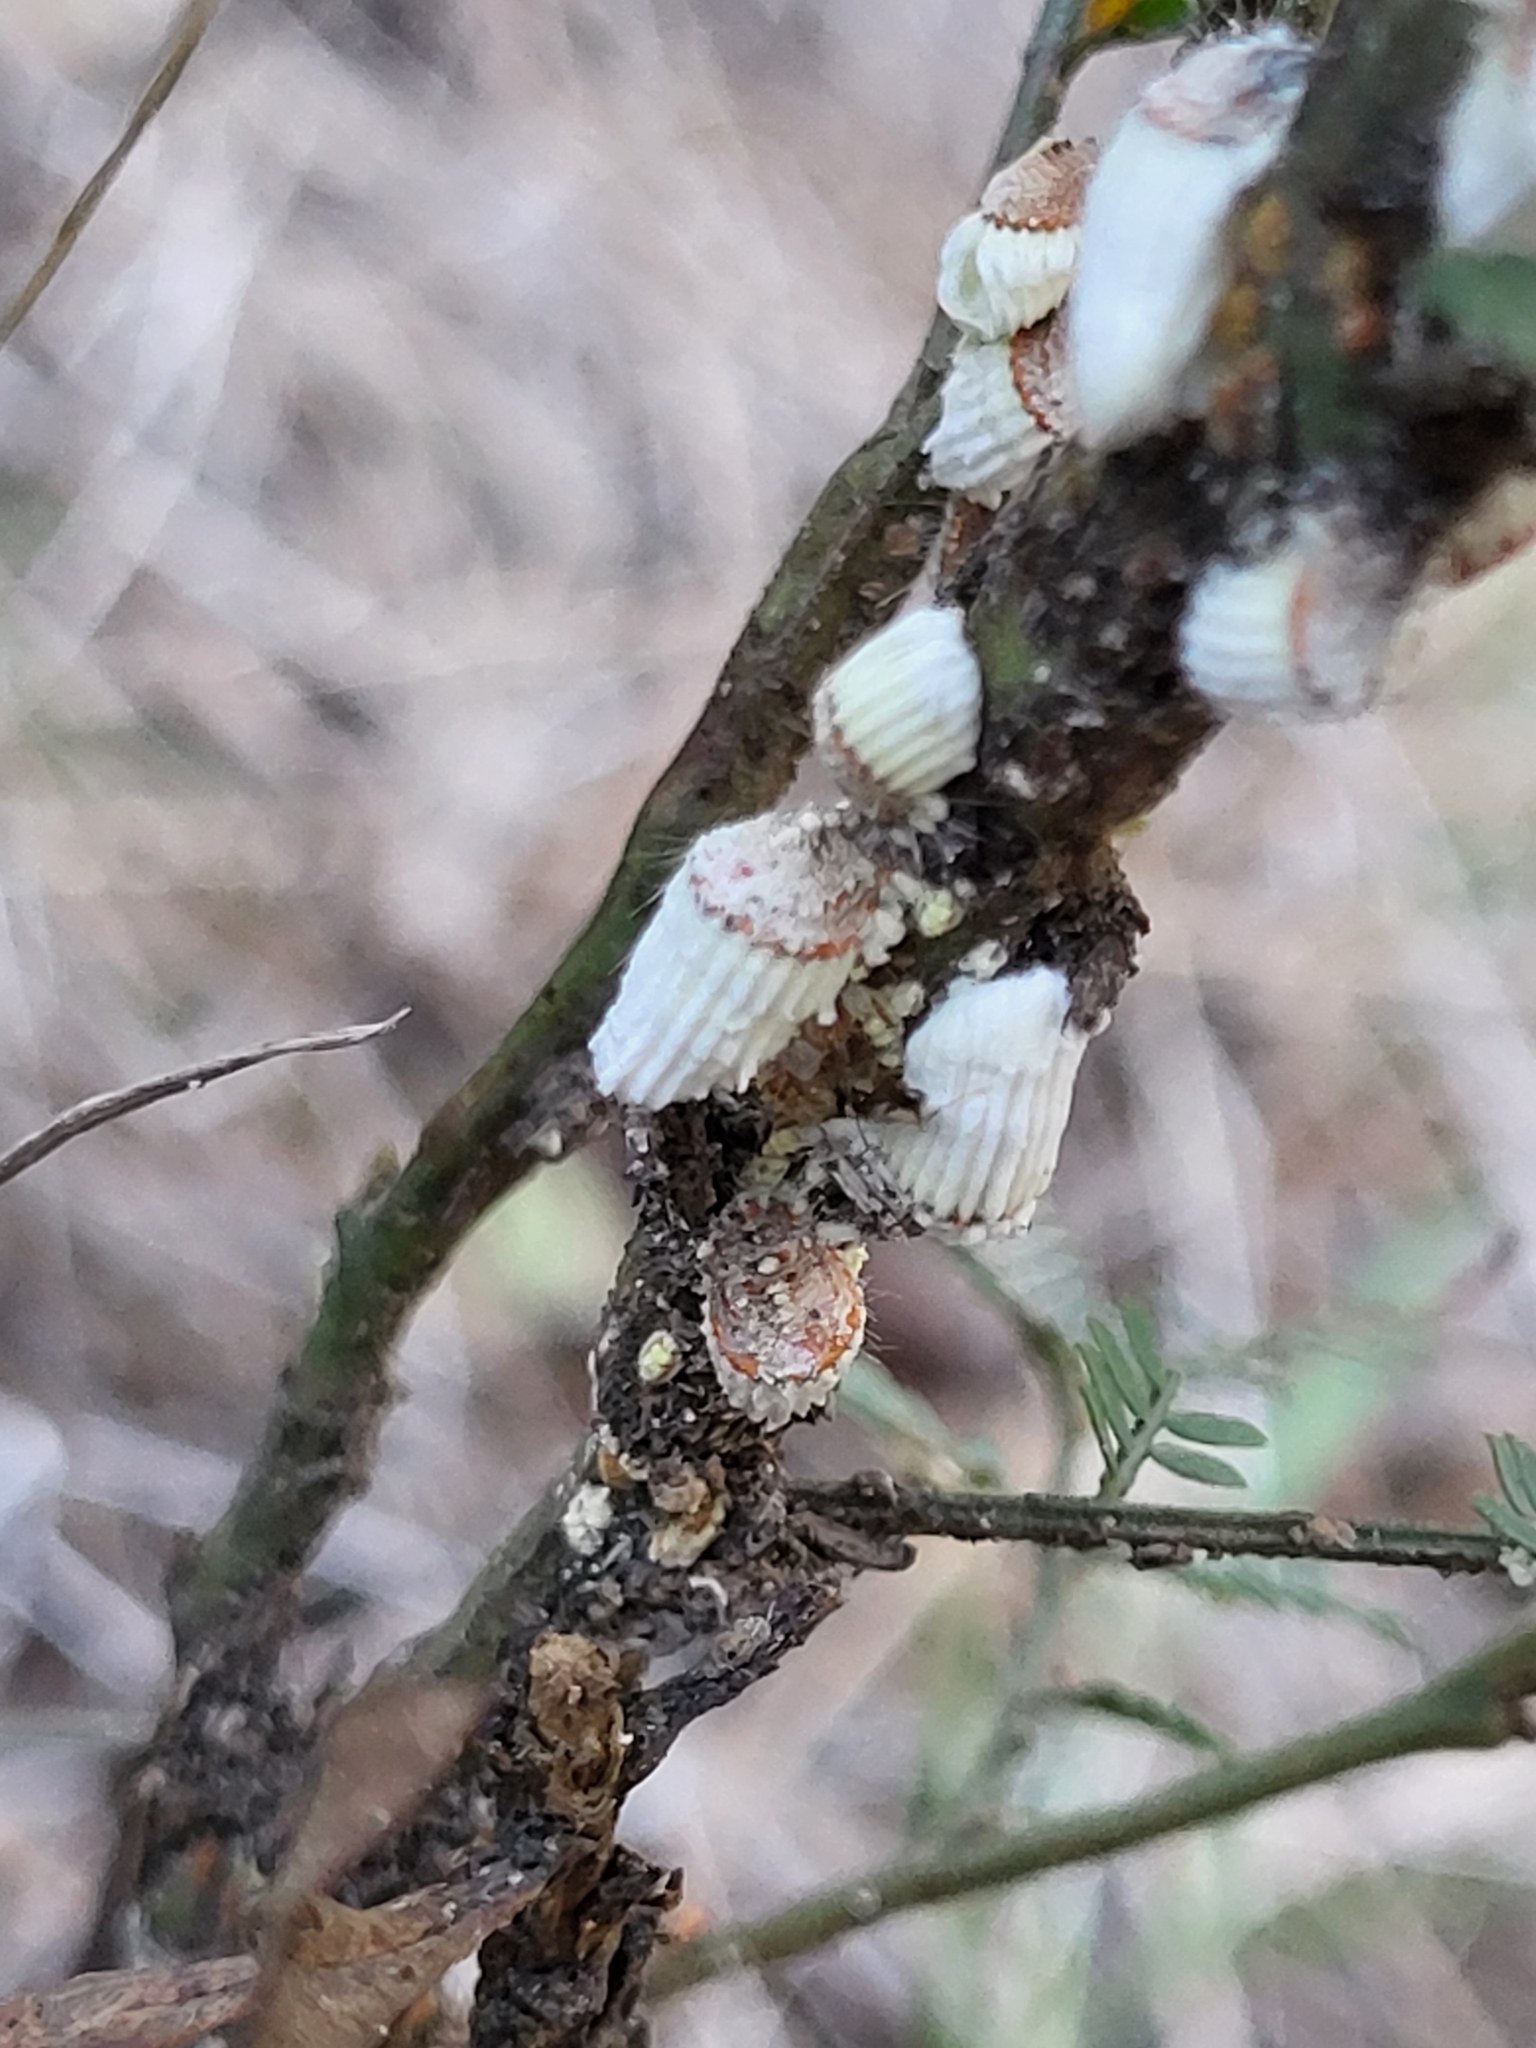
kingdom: Animalia
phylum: Arthropoda
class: Insecta
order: Hemiptera
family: Margarodidae
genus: Icerya
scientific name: Icerya purchasi
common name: Cottony cushion scale
